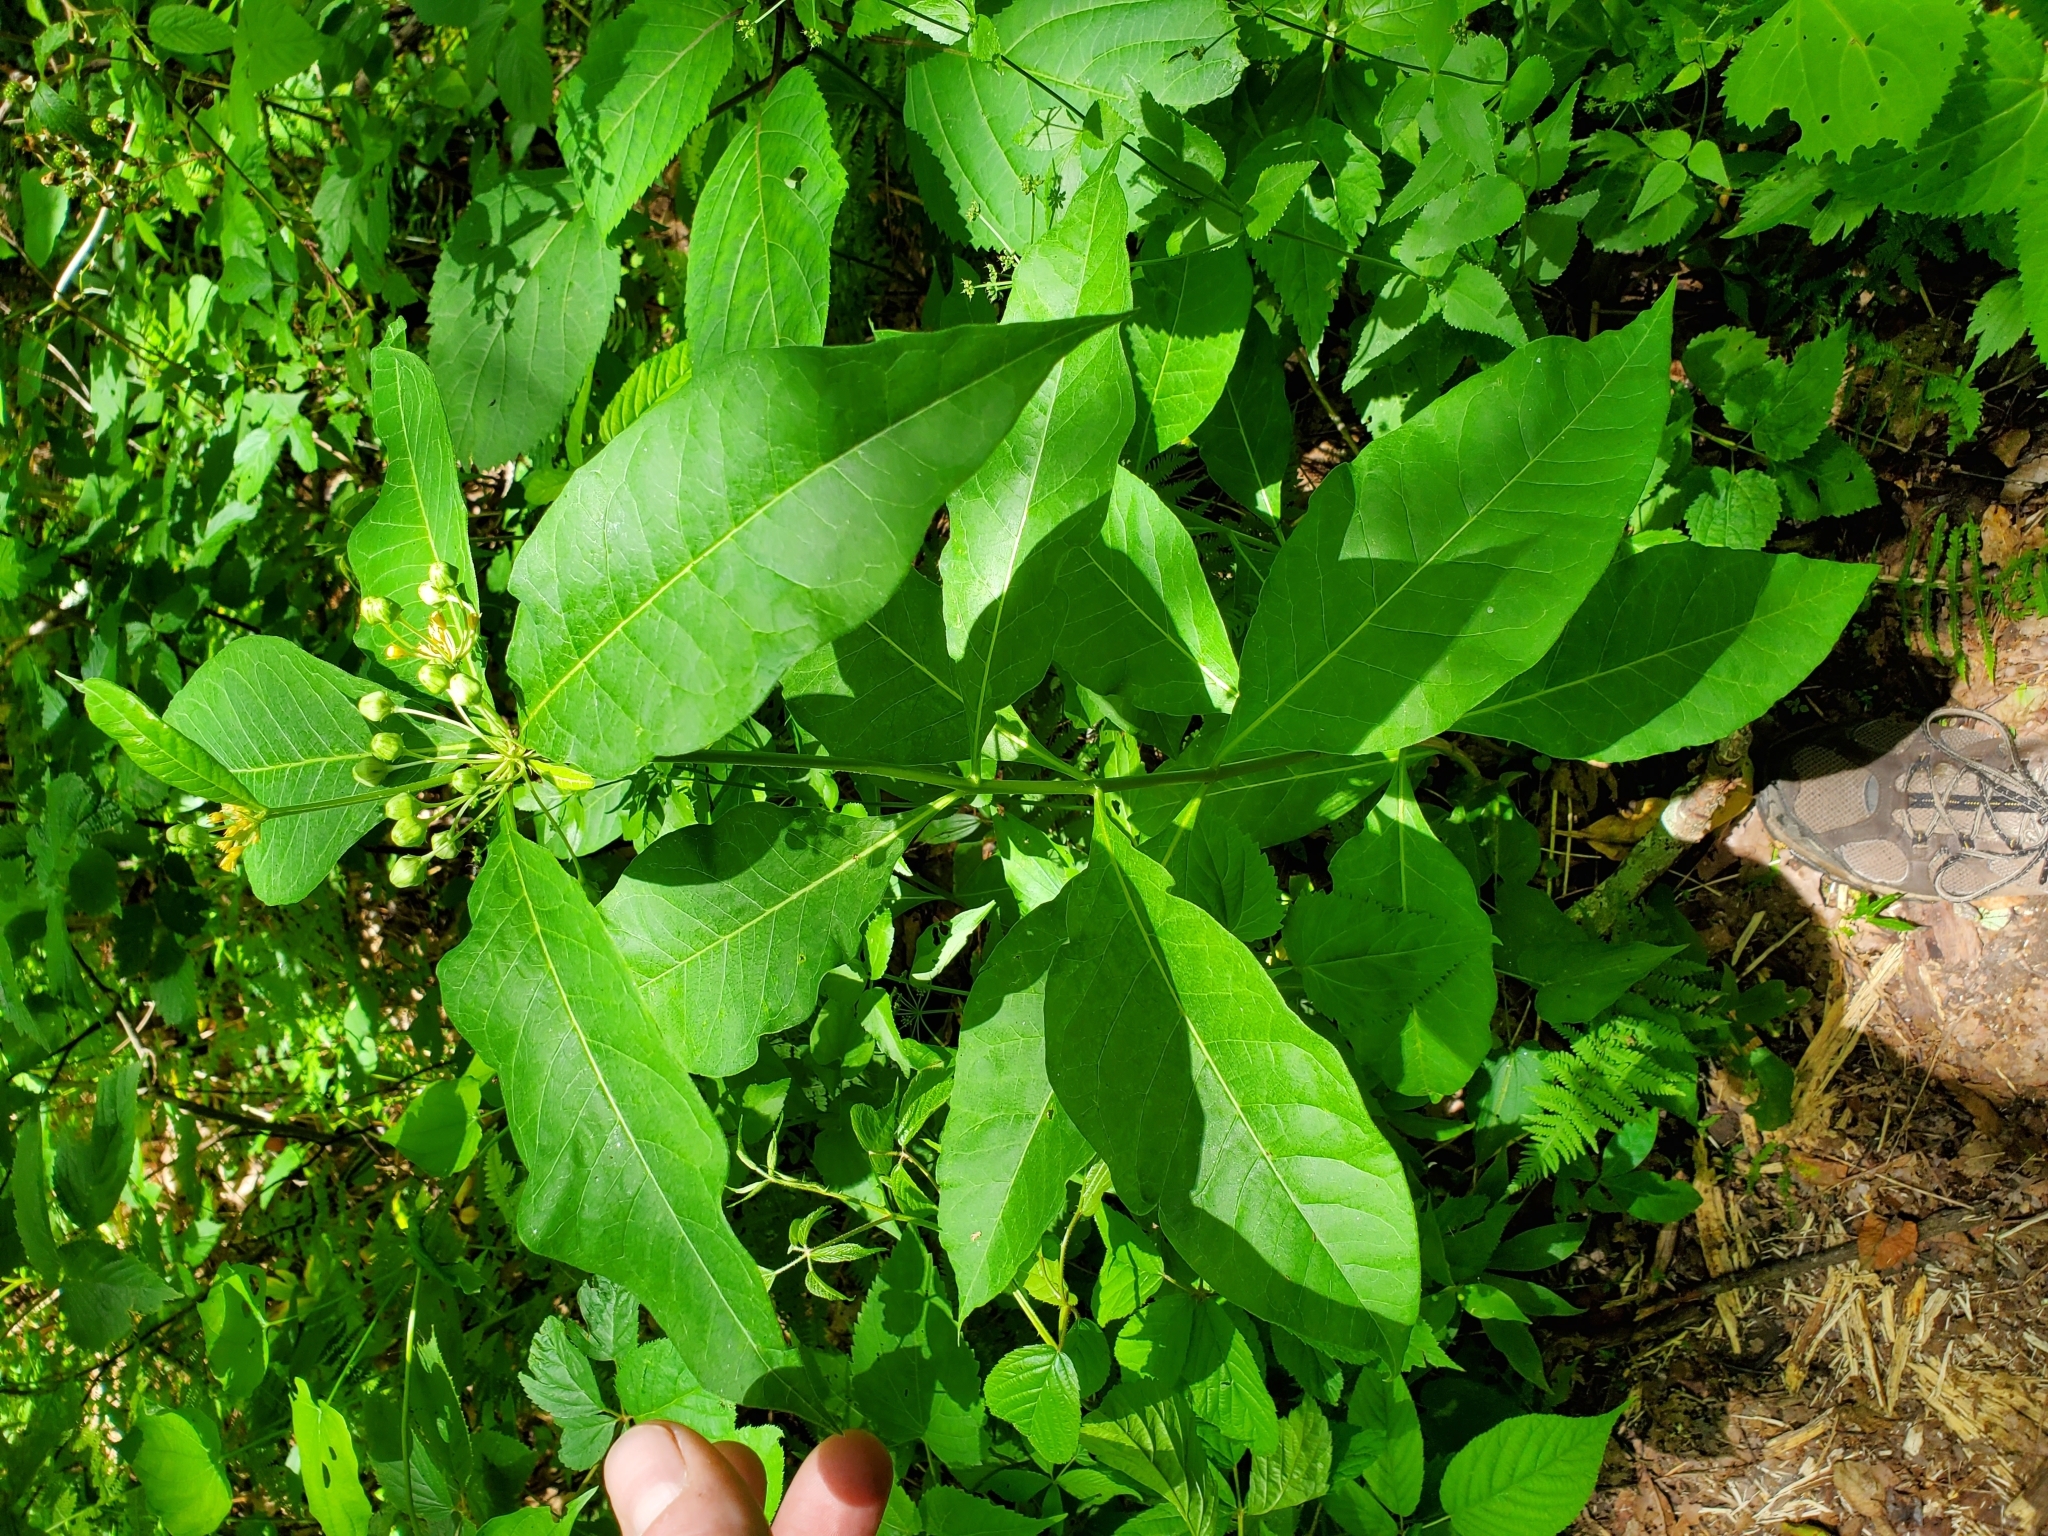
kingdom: Plantae
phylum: Tracheophyta
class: Magnoliopsida
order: Gentianales
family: Apocynaceae
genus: Asclepias
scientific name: Asclepias exaltata
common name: Poke milkweed
